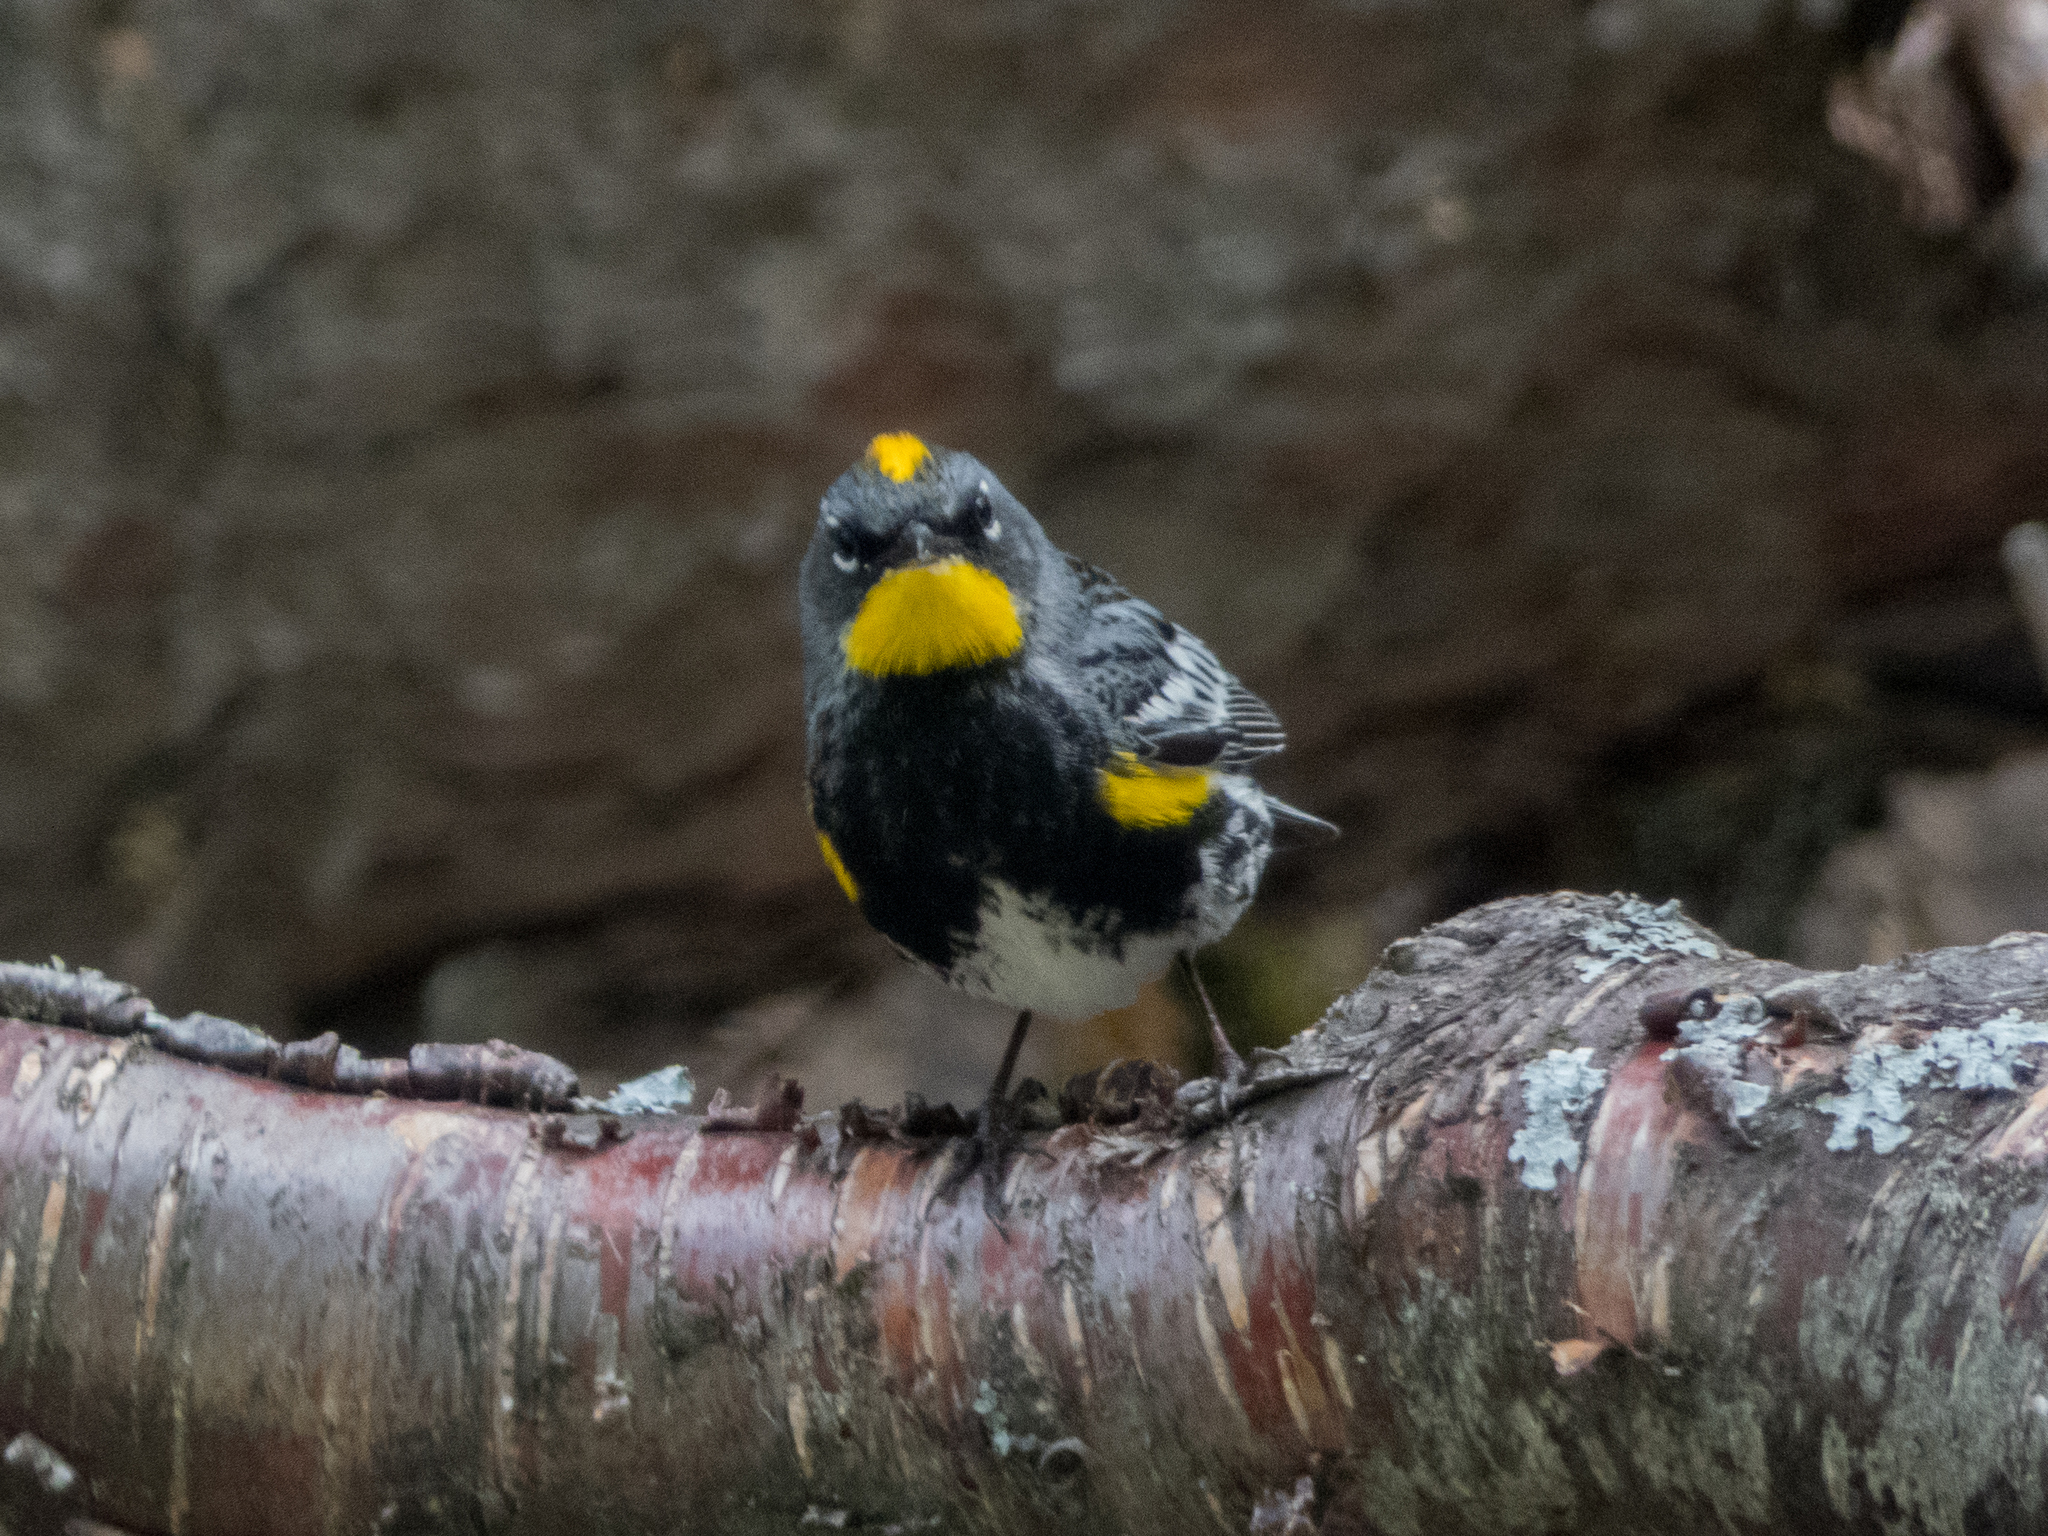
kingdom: Animalia
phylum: Chordata
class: Aves
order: Passeriformes
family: Parulidae
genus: Setophaga
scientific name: Setophaga auduboni
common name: Audubon's warbler
